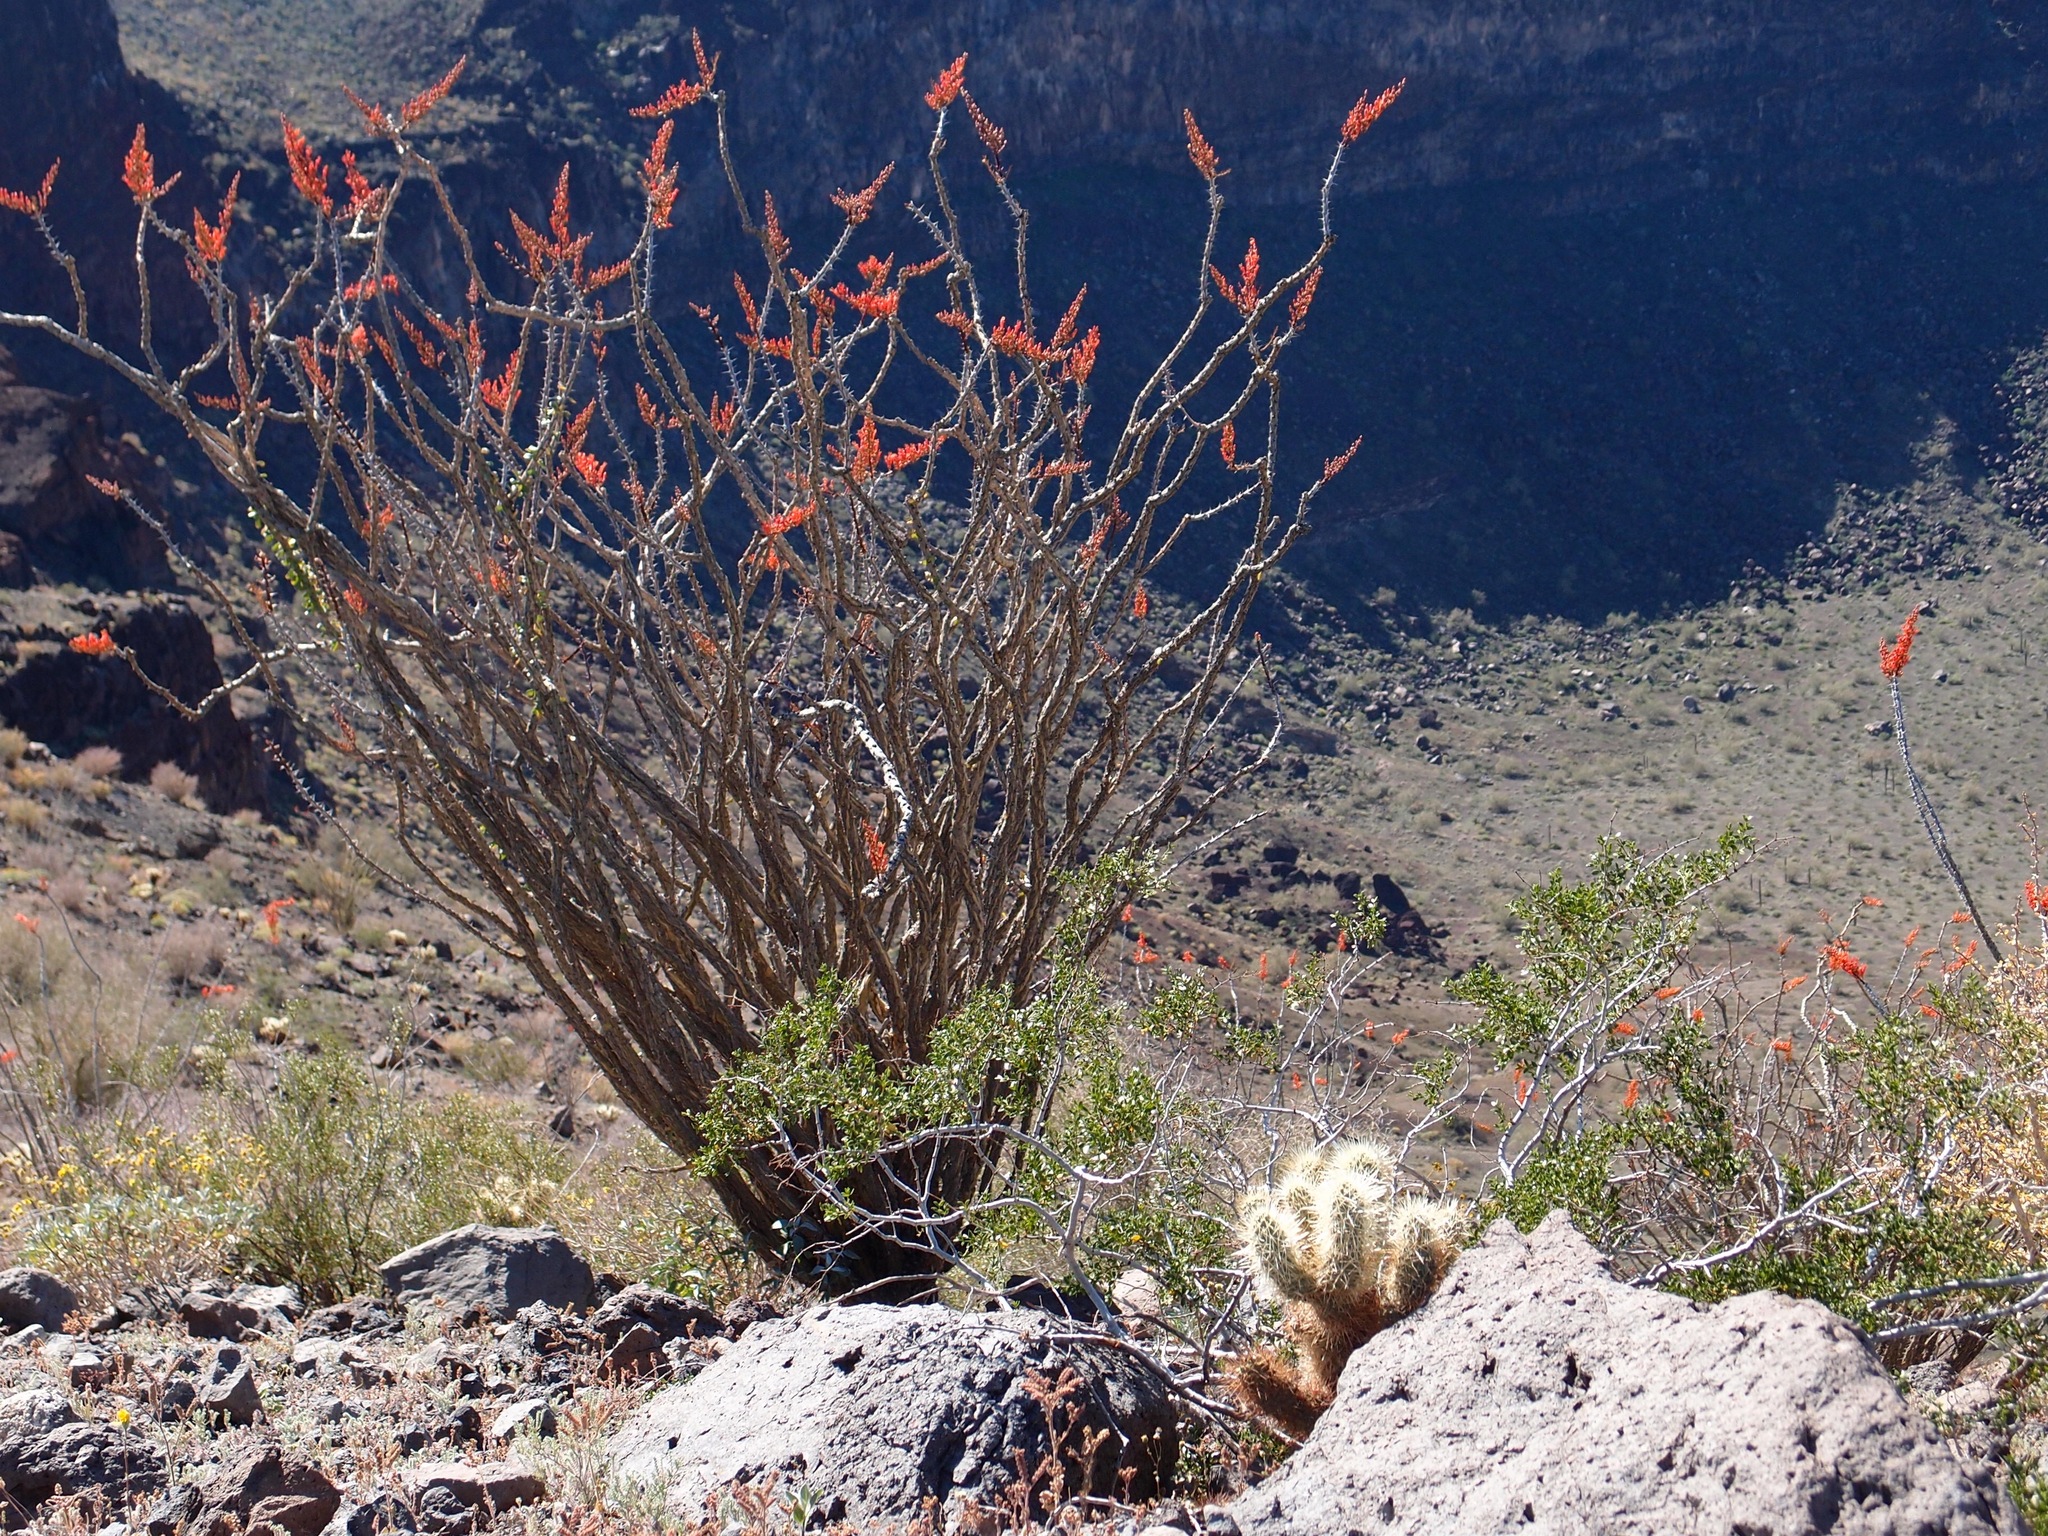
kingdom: Plantae
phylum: Tracheophyta
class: Magnoliopsida
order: Ericales
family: Fouquieriaceae
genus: Fouquieria
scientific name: Fouquieria splendens
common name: Vine-cactus
